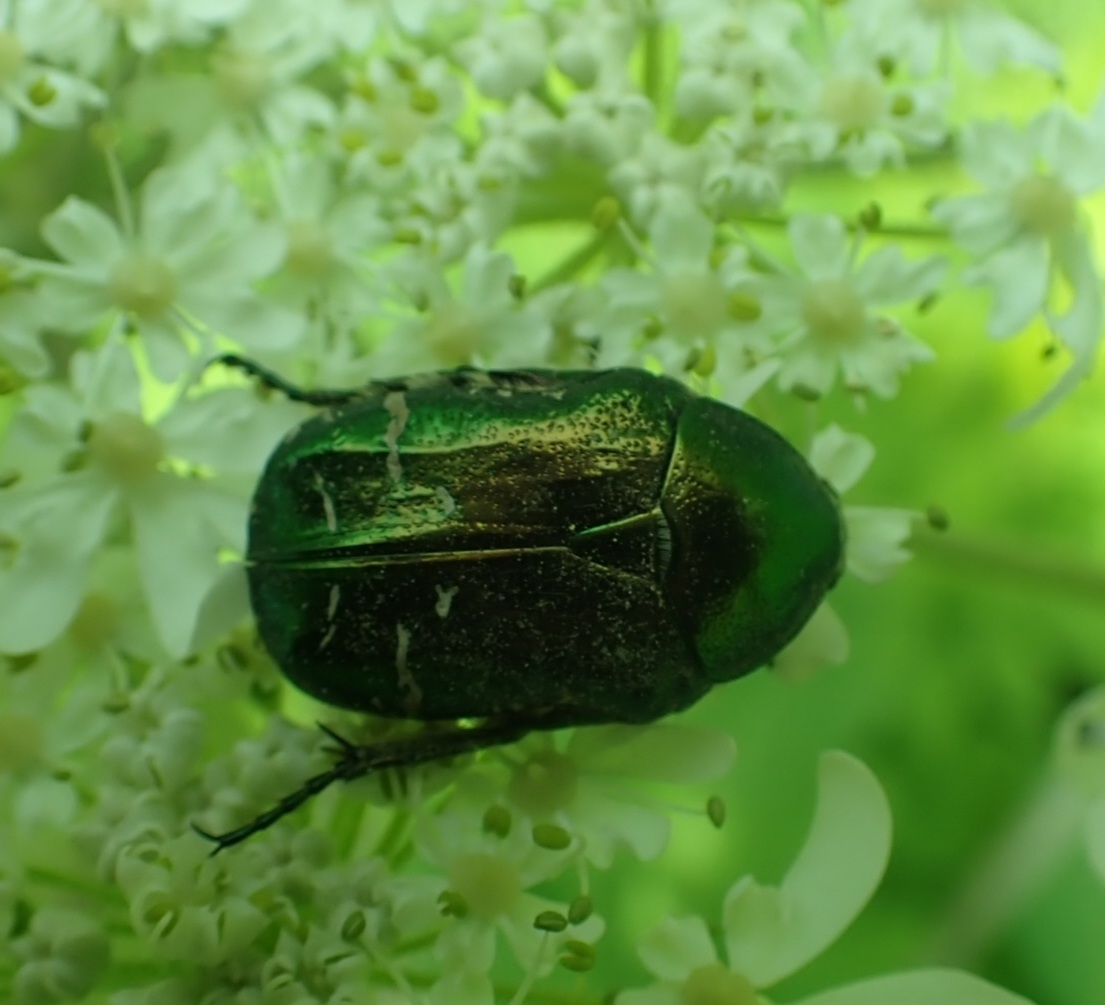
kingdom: Animalia
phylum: Arthropoda
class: Insecta
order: Coleoptera
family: Scarabaeidae
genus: Cetonia
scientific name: Cetonia aurata
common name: Rose chafer
